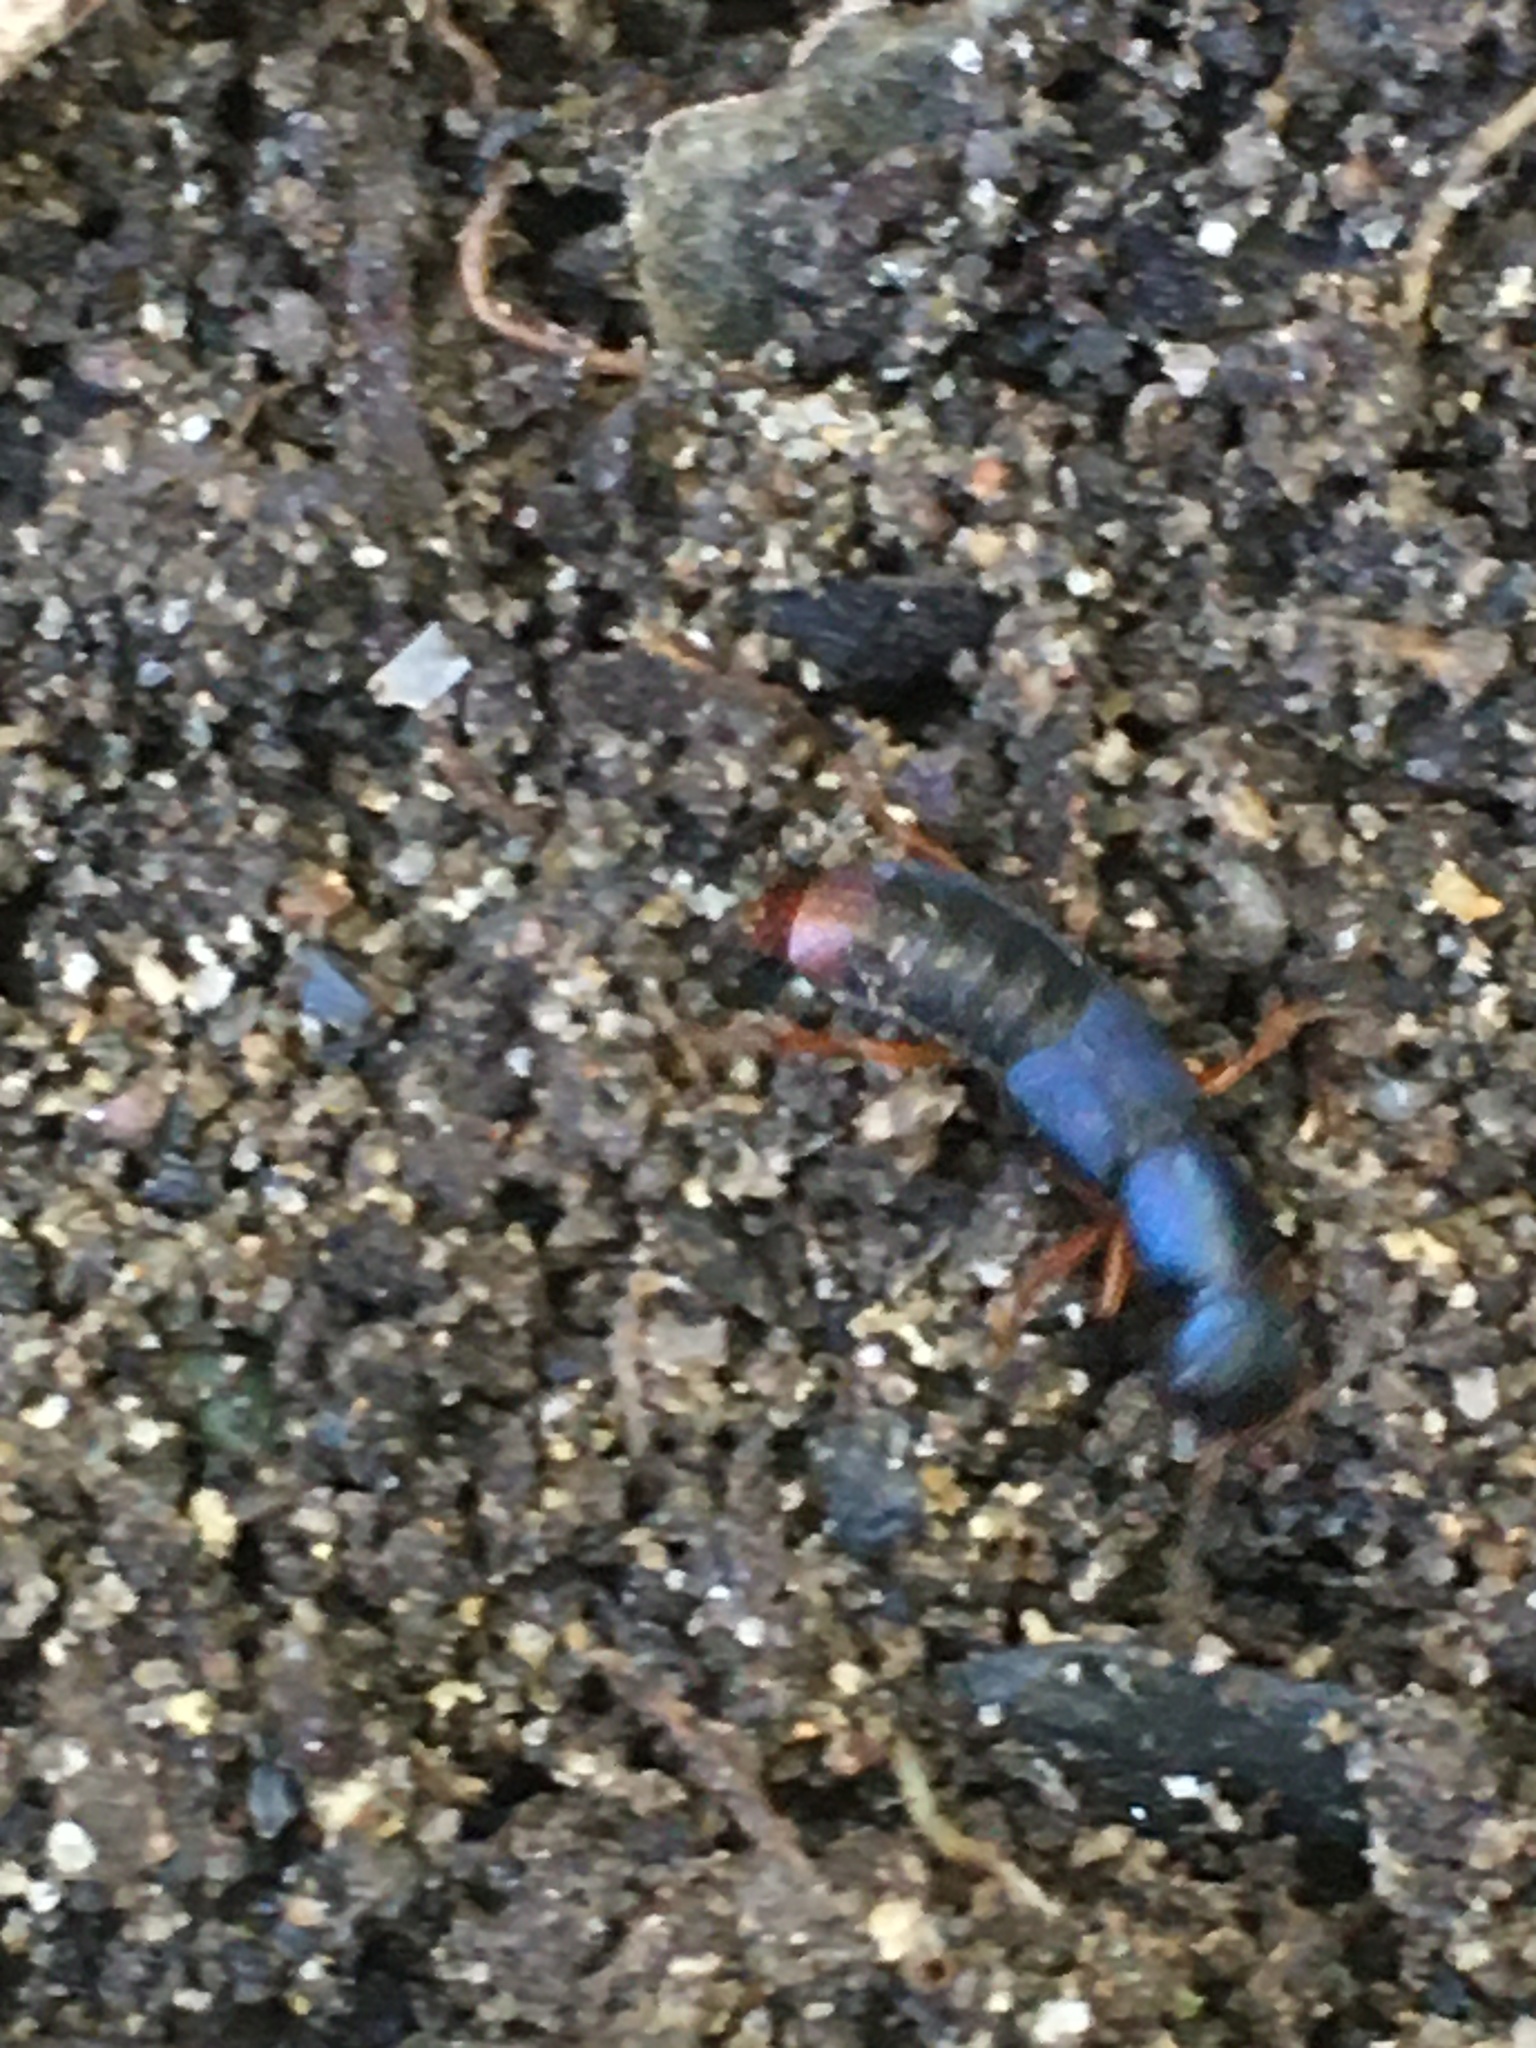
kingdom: Animalia
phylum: Arthropoda
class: Insecta
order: Coleoptera
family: Staphylinidae
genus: Dinothenarus
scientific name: Dinothenarus saphyrinus
